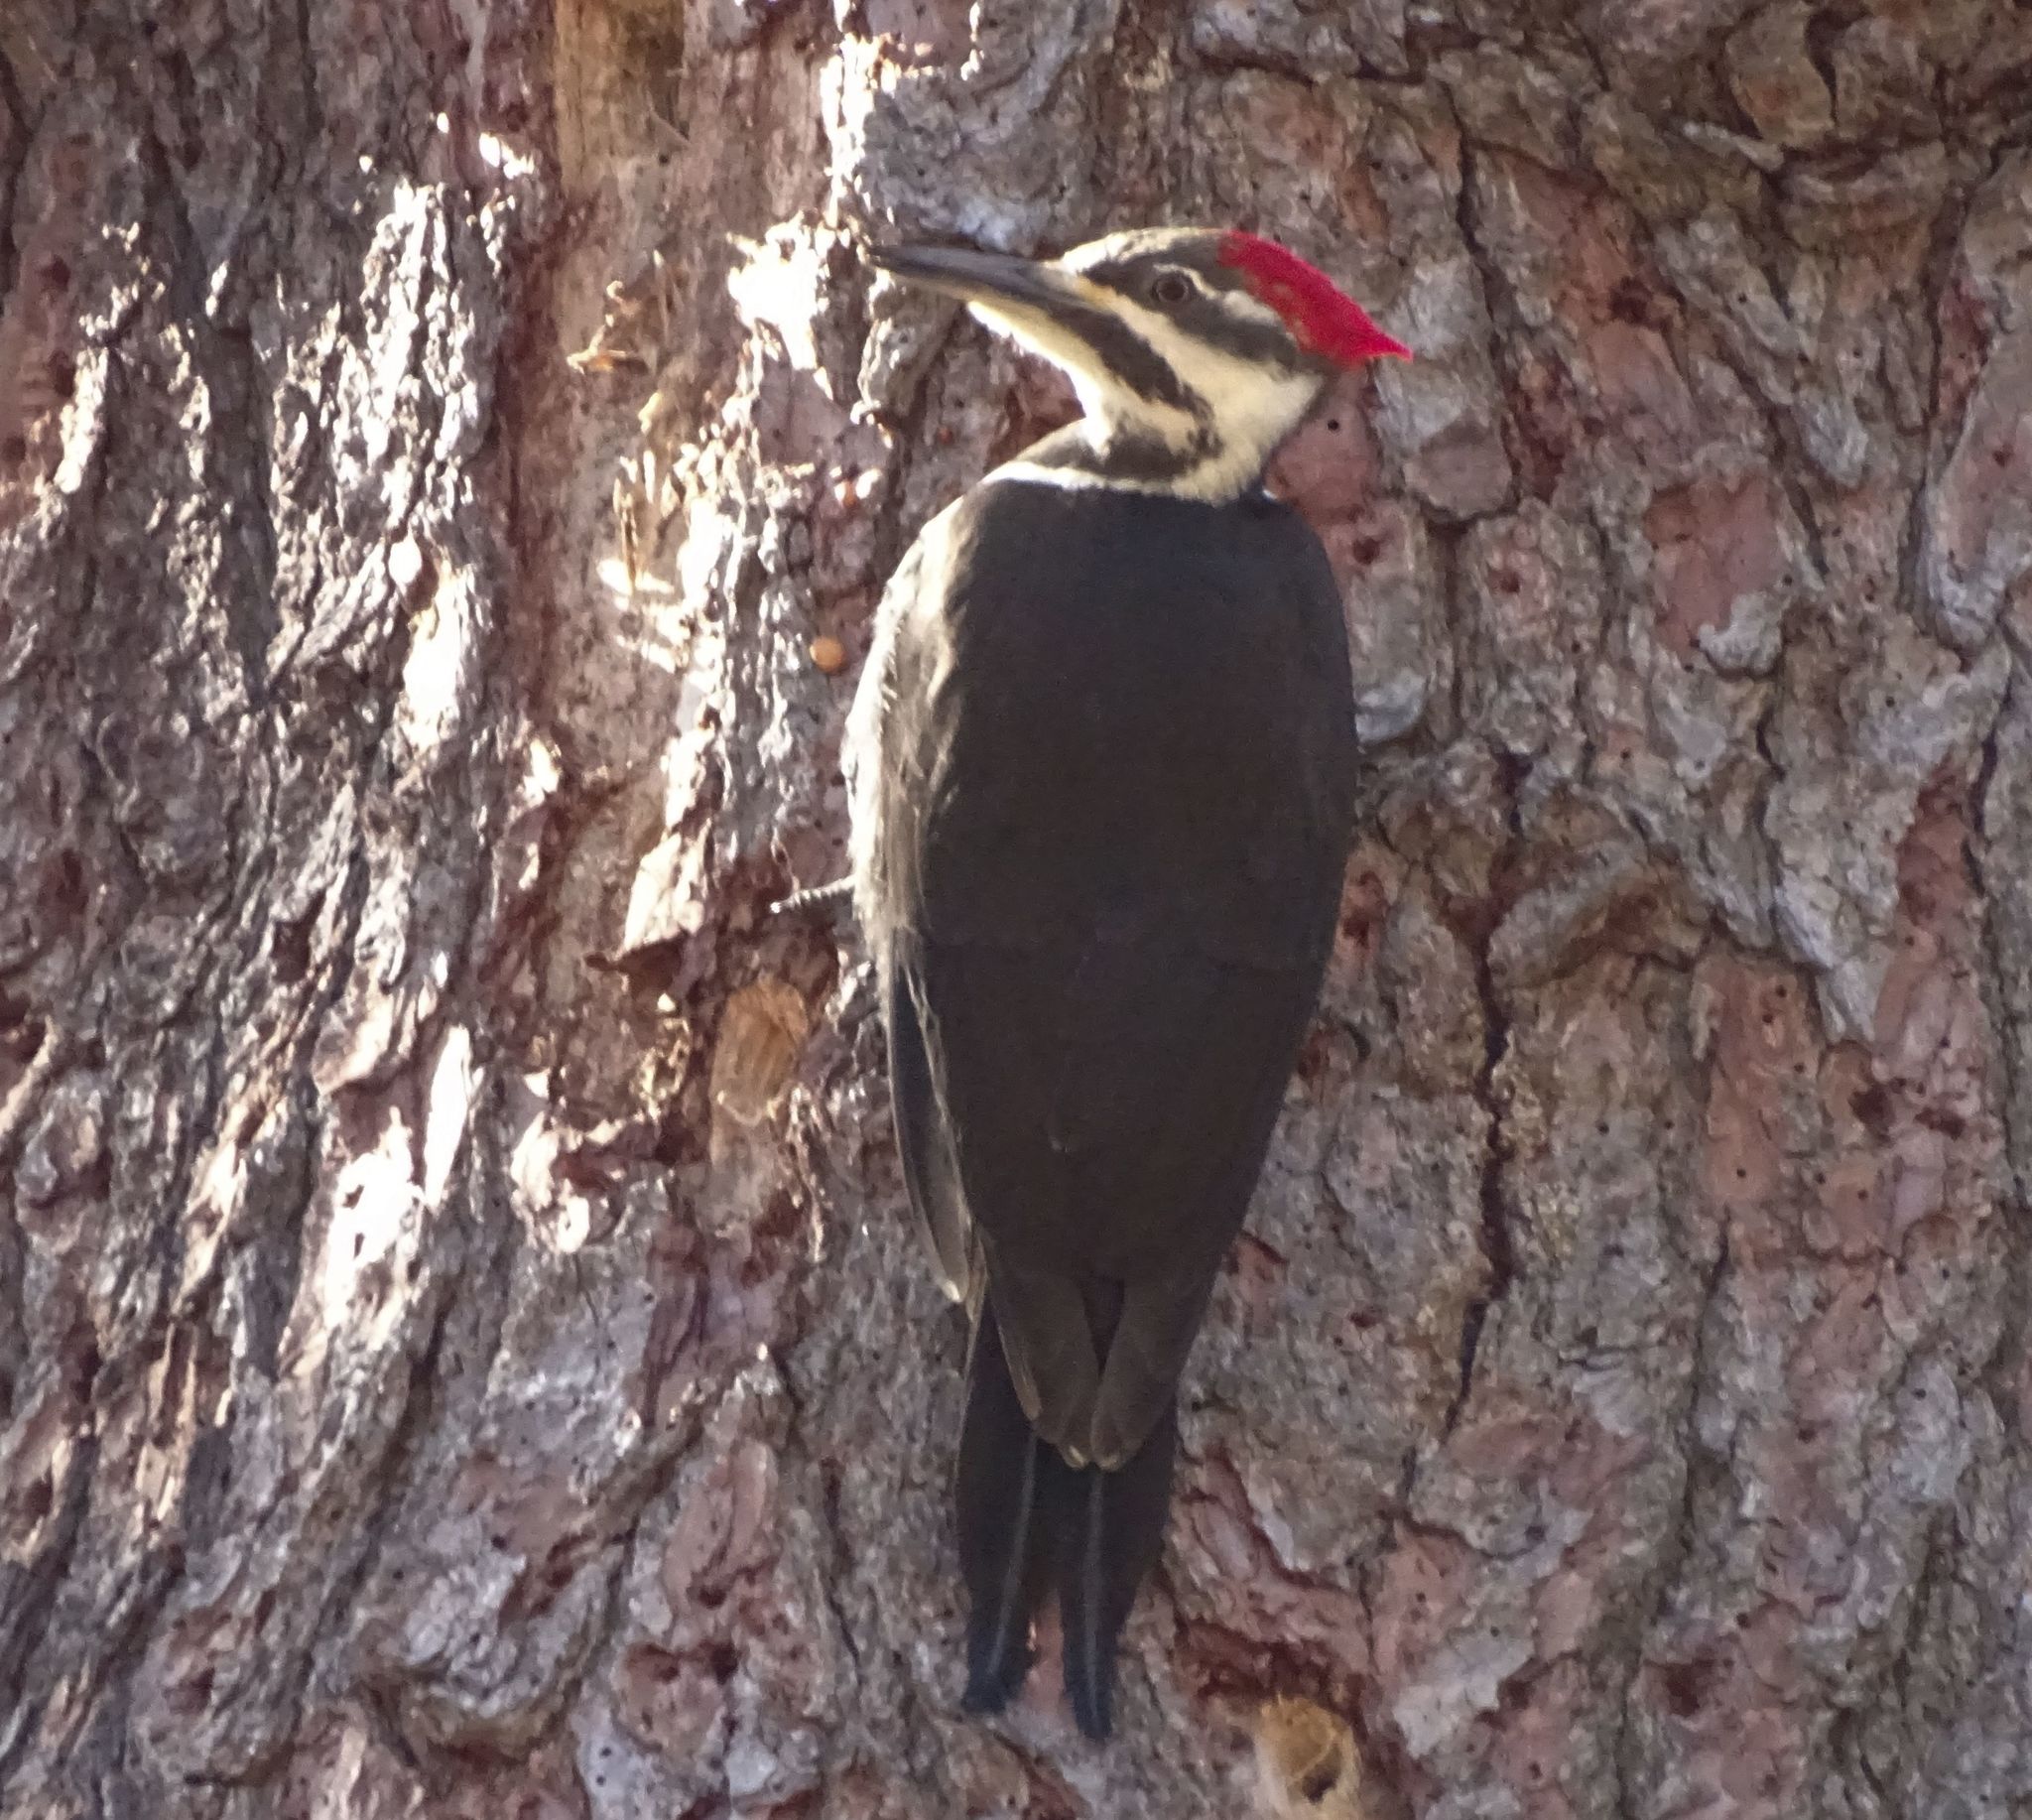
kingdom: Animalia
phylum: Chordata
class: Aves
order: Piciformes
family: Picidae
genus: Dryocopus
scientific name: Dryocopus pileatus
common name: Pileated woodpecker
